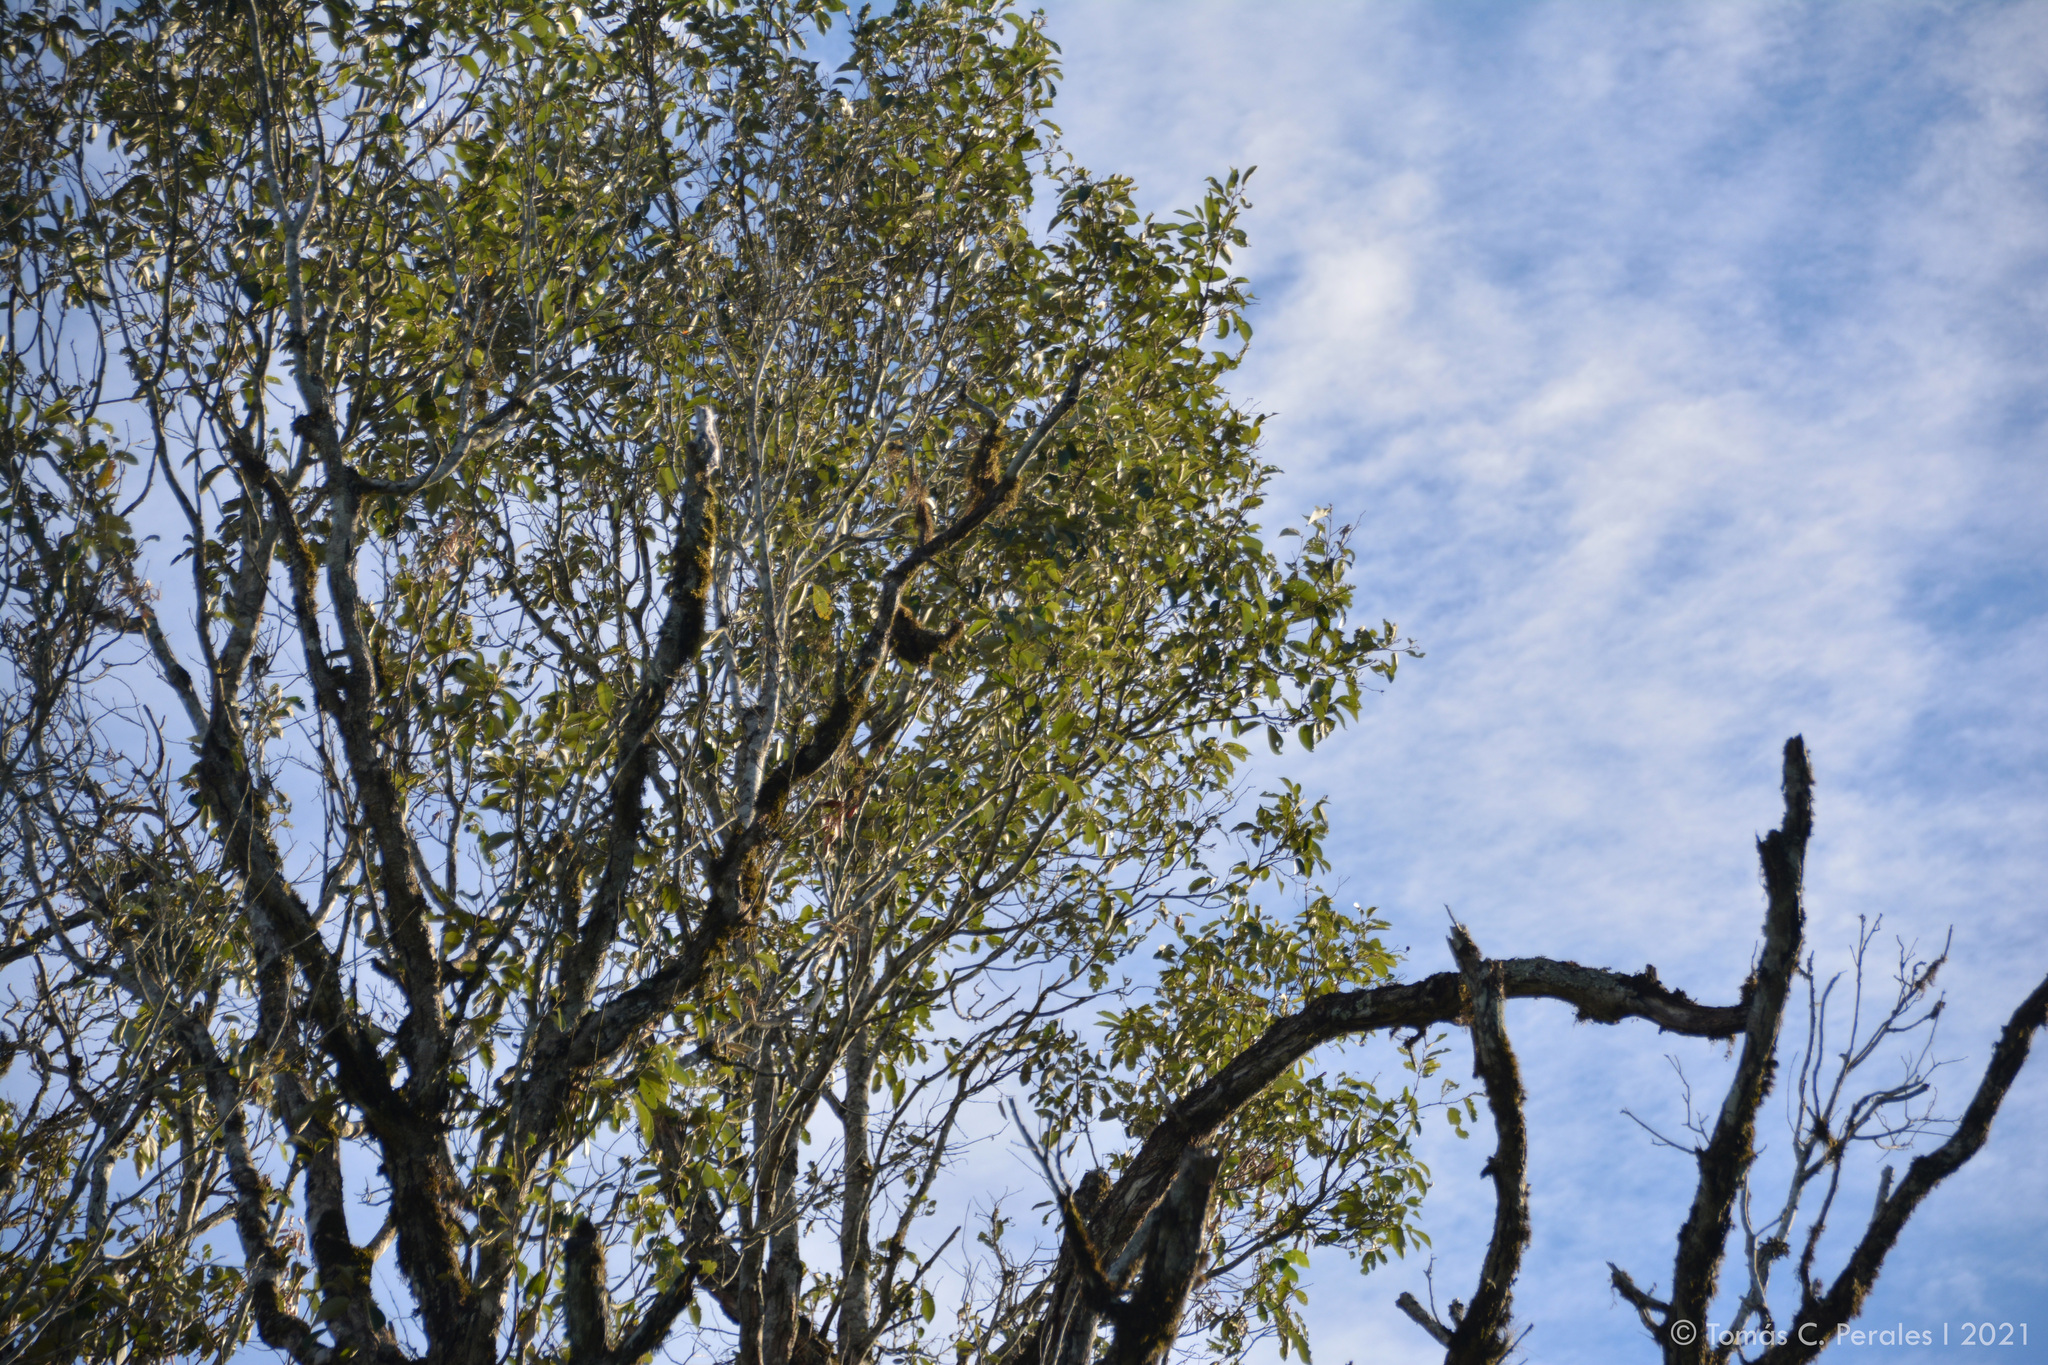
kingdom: Animalia
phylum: Chordata
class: Aves
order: Nyctibiiformes
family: Nyctibiidae
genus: Nyctibius
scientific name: Nyctibius griseus
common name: Common potoo
